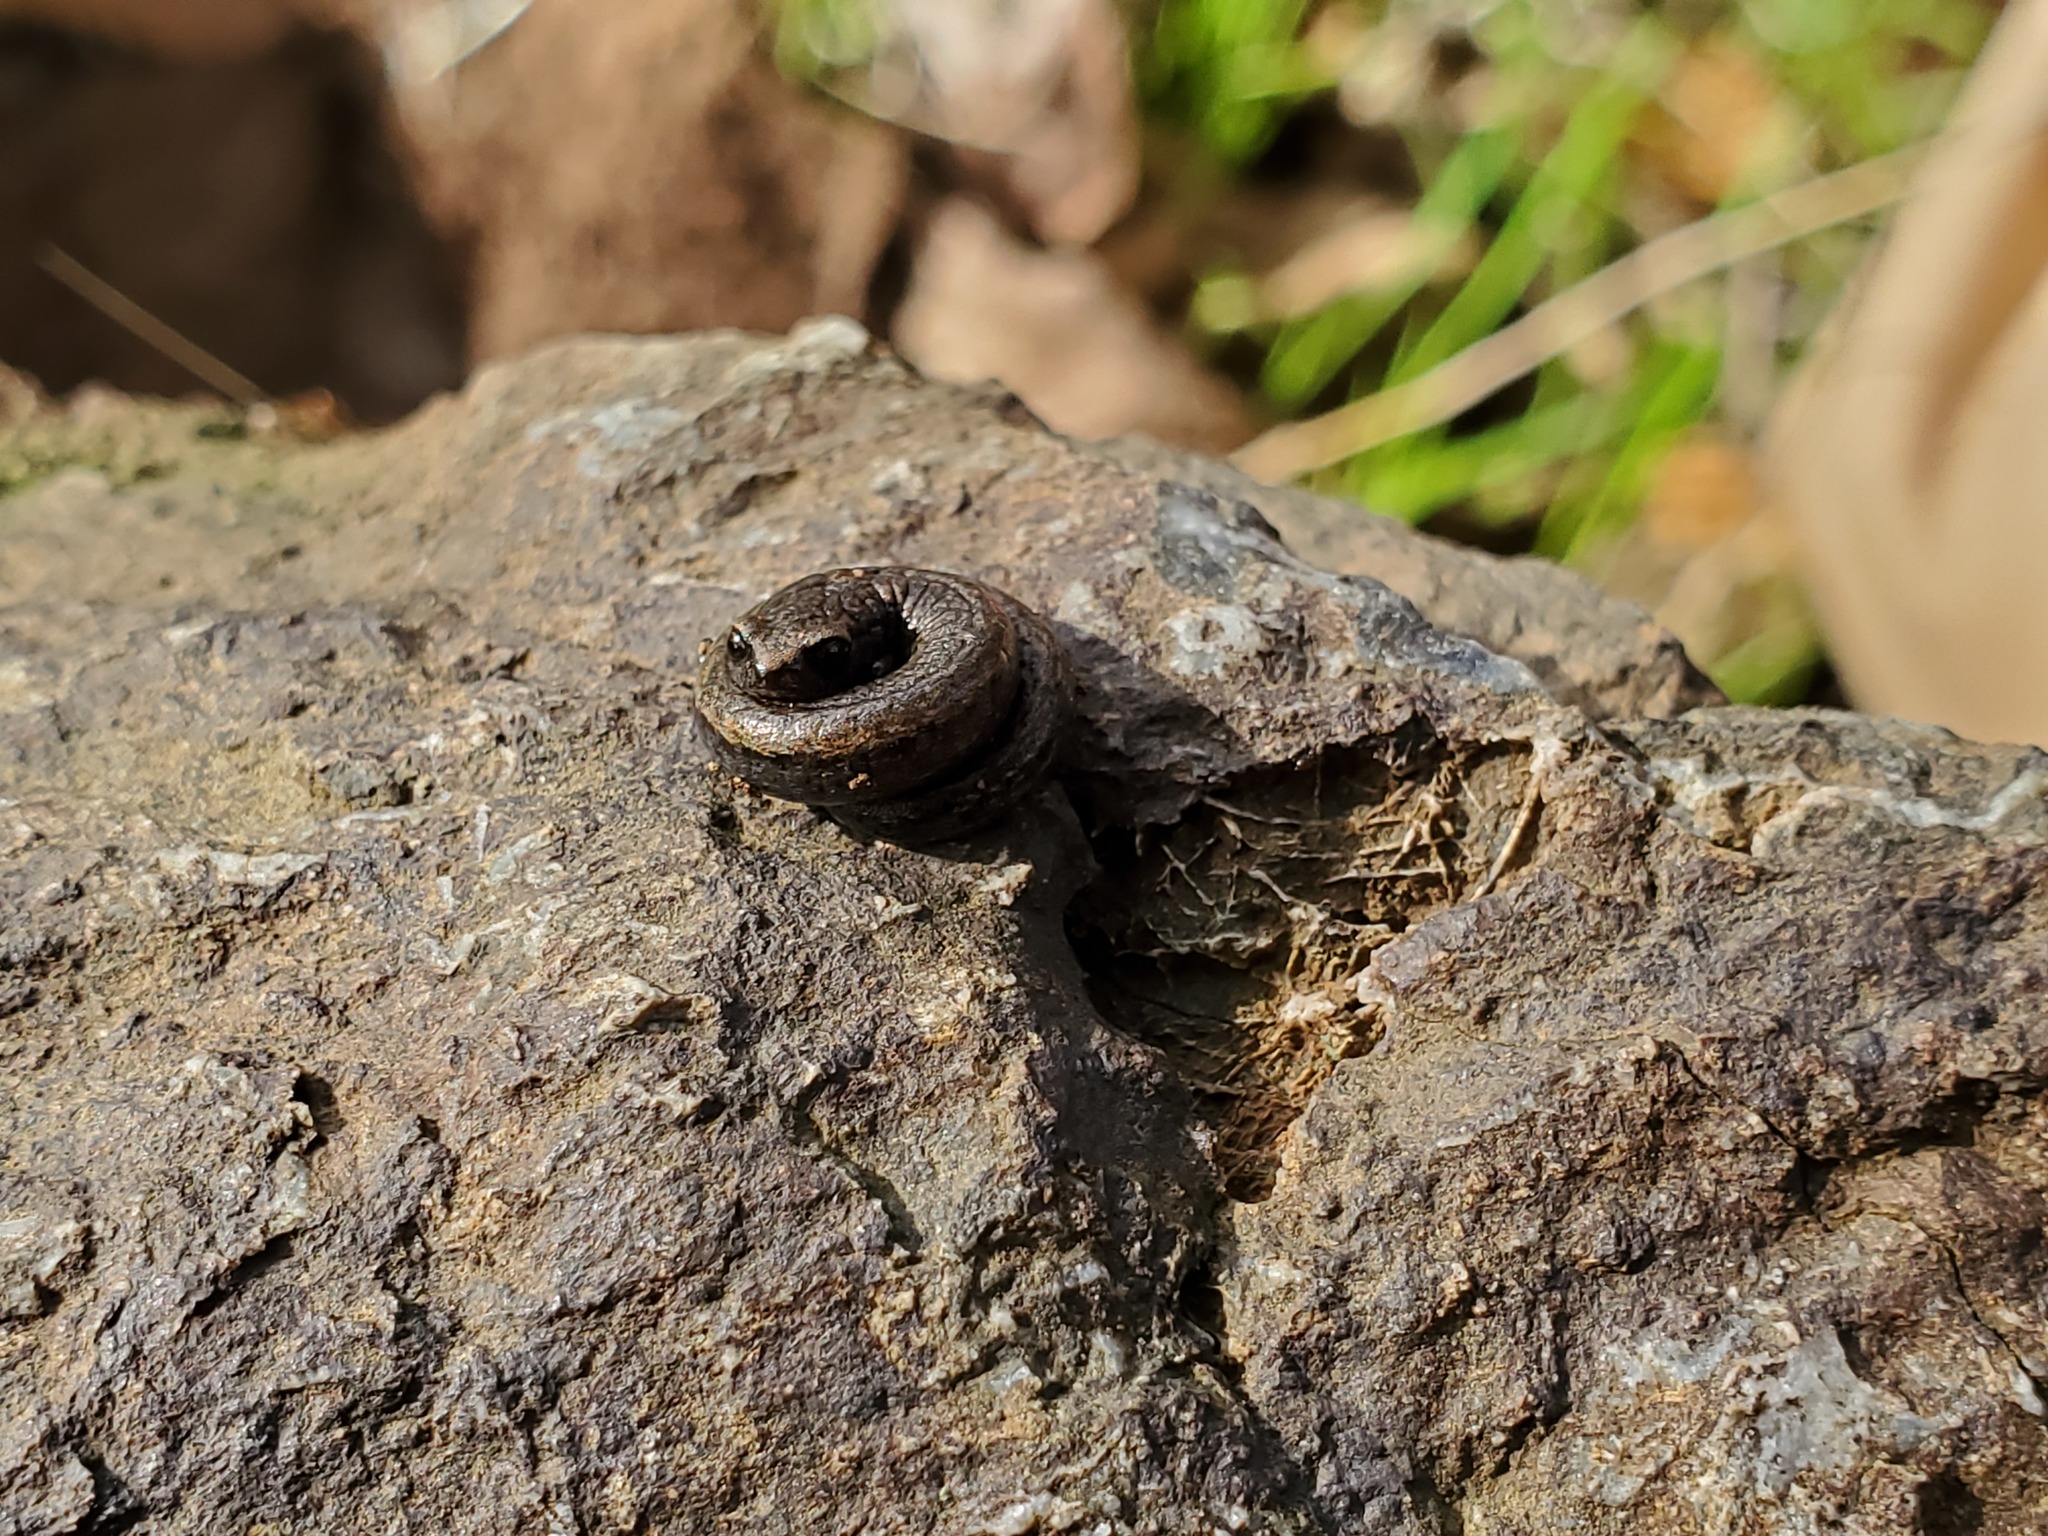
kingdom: Animalia
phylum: Chordata
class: Amphibia
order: Caudata
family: Plethodontidae
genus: Batrachoseps
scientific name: Batrachoseps attenuatus
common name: California slender salamander
